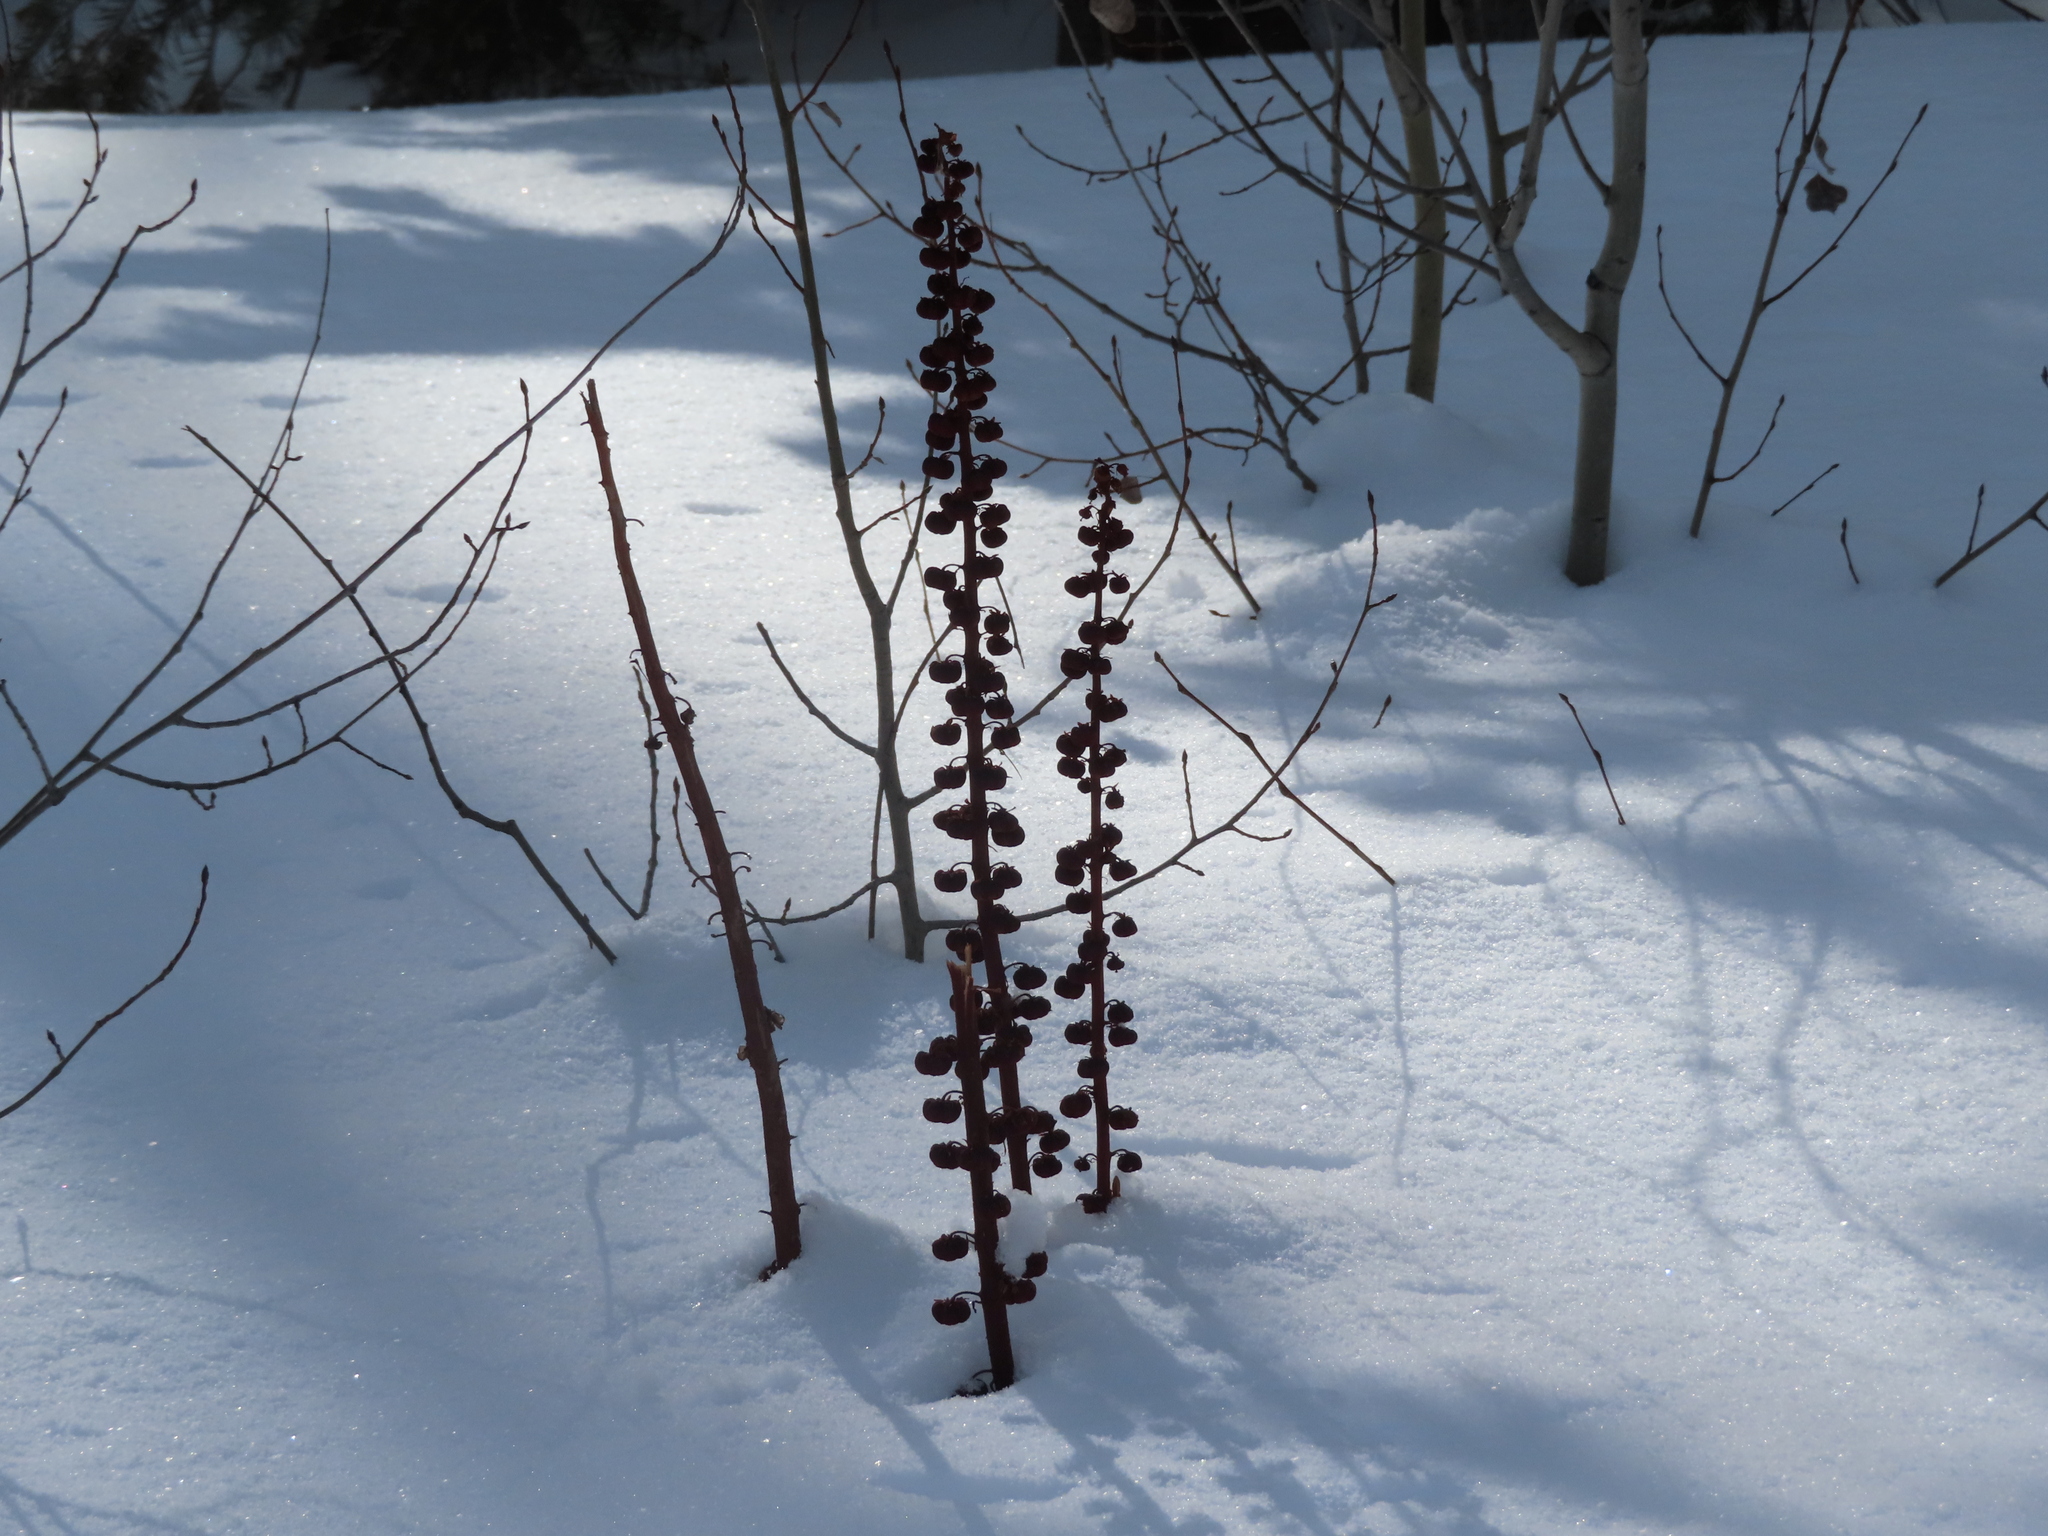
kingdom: Plantae
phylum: Tracheophyta
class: Magnoliopsida
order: Ericales
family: Ericaceae
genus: Pterospora
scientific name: Pterospora andromedea
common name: Giant bird's-nest
